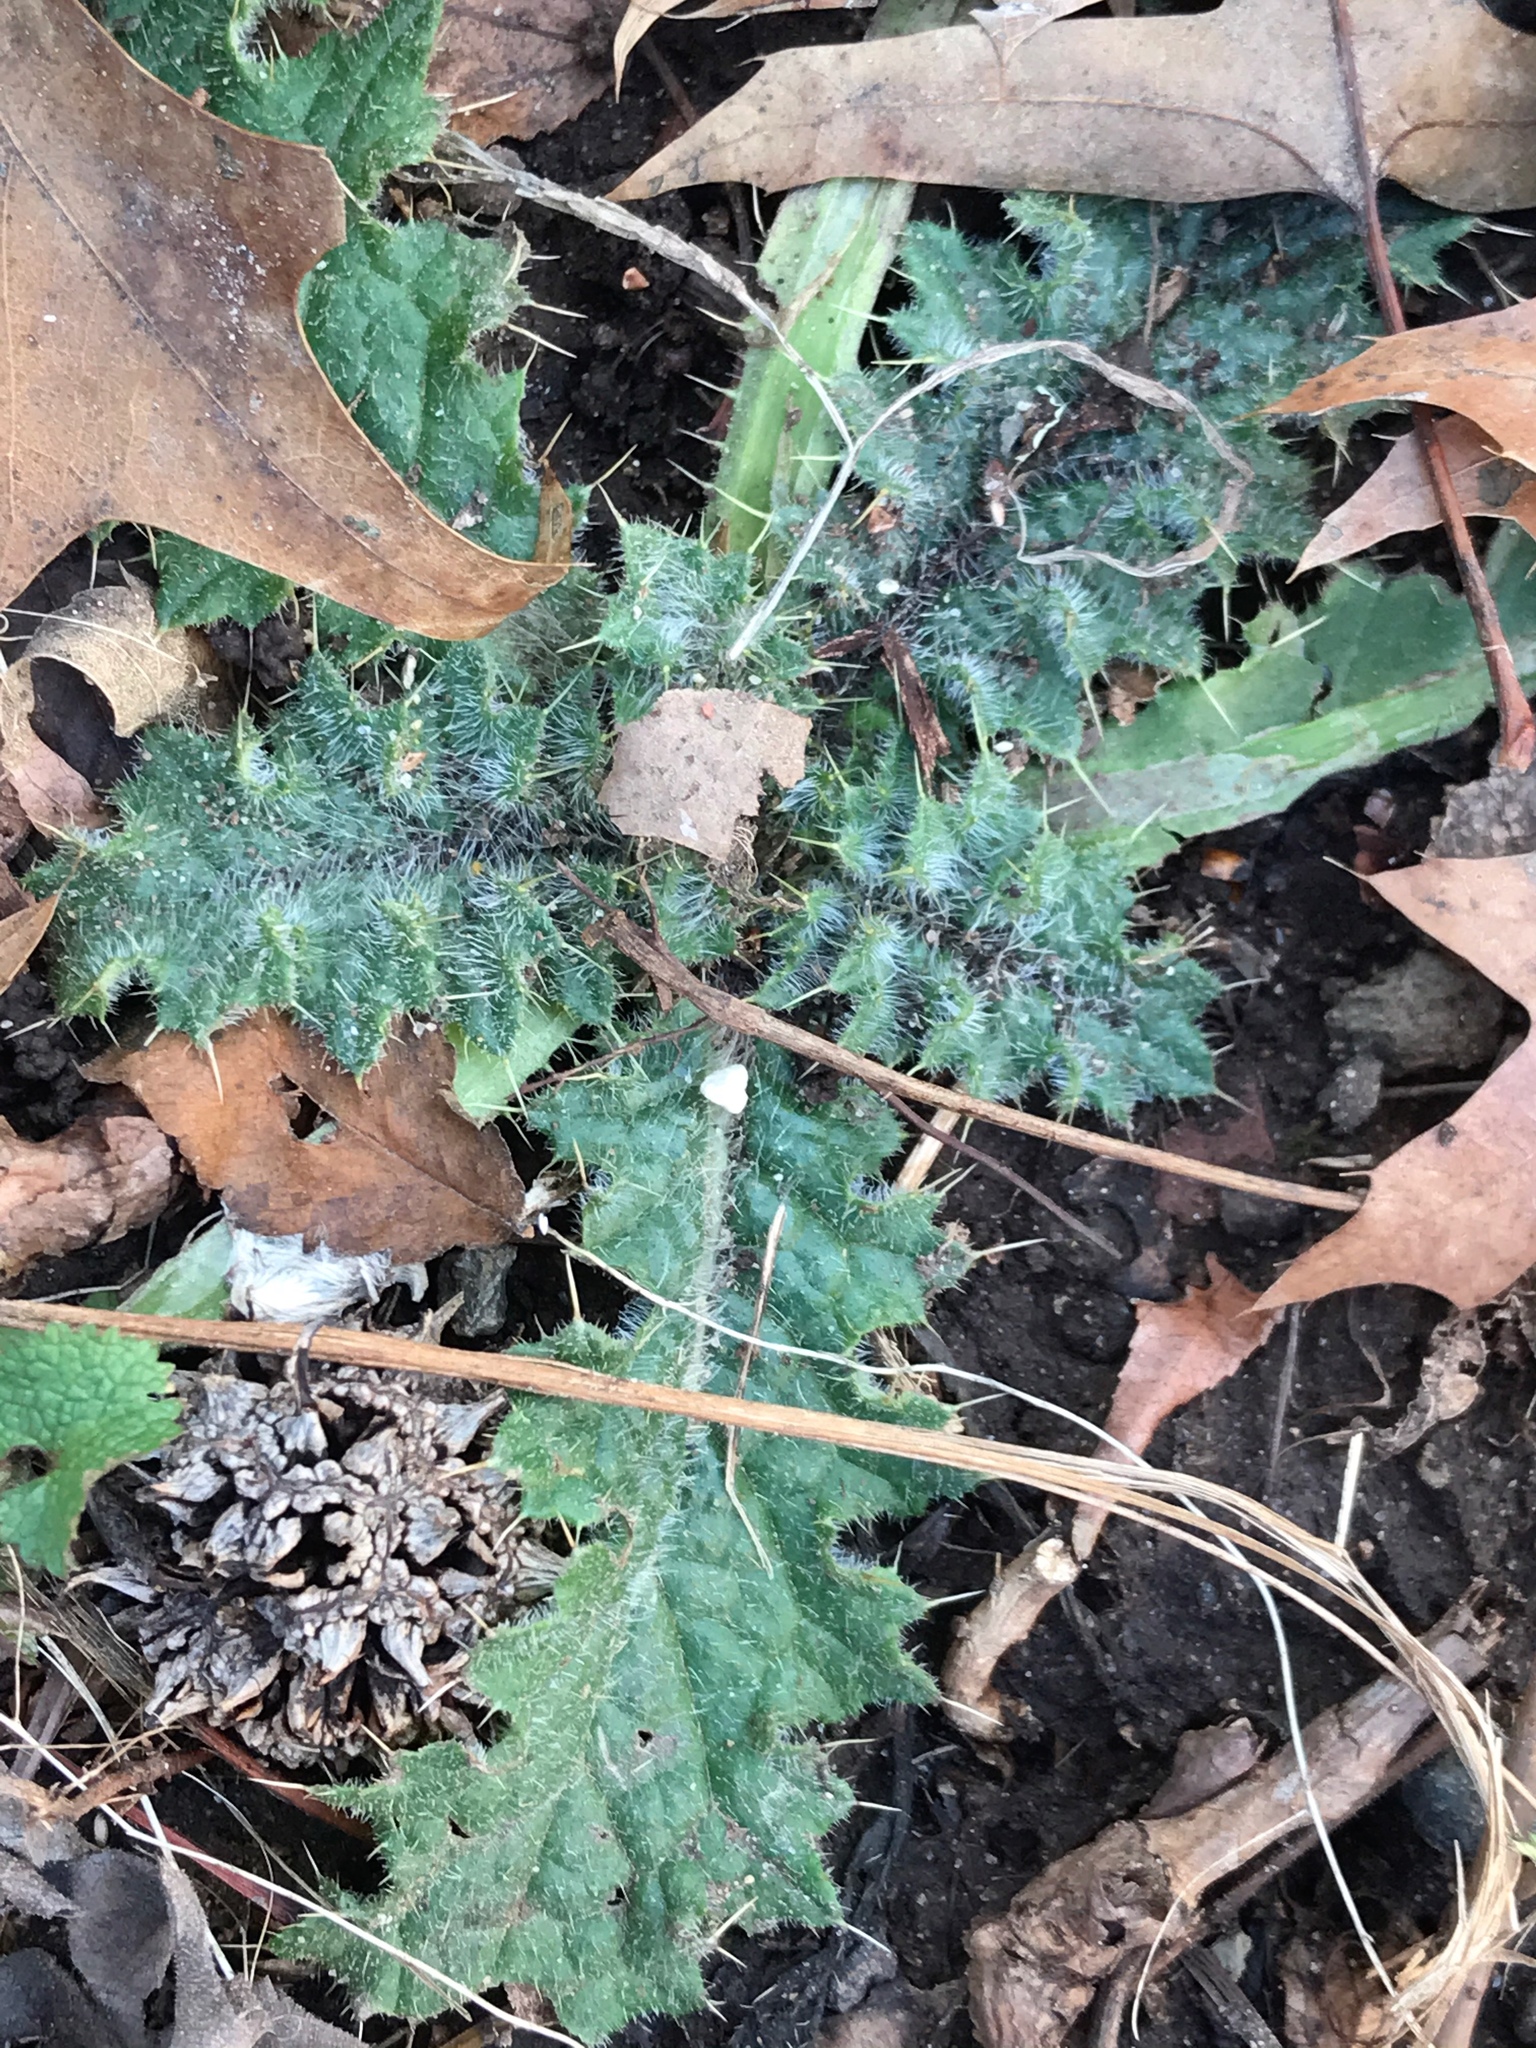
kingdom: Plantae
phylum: Tracheophyta
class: Magnoliopsida
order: Asterales
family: Asteraceae
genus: Cirsium
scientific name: Cirsium vulgare
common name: Bull thistle
